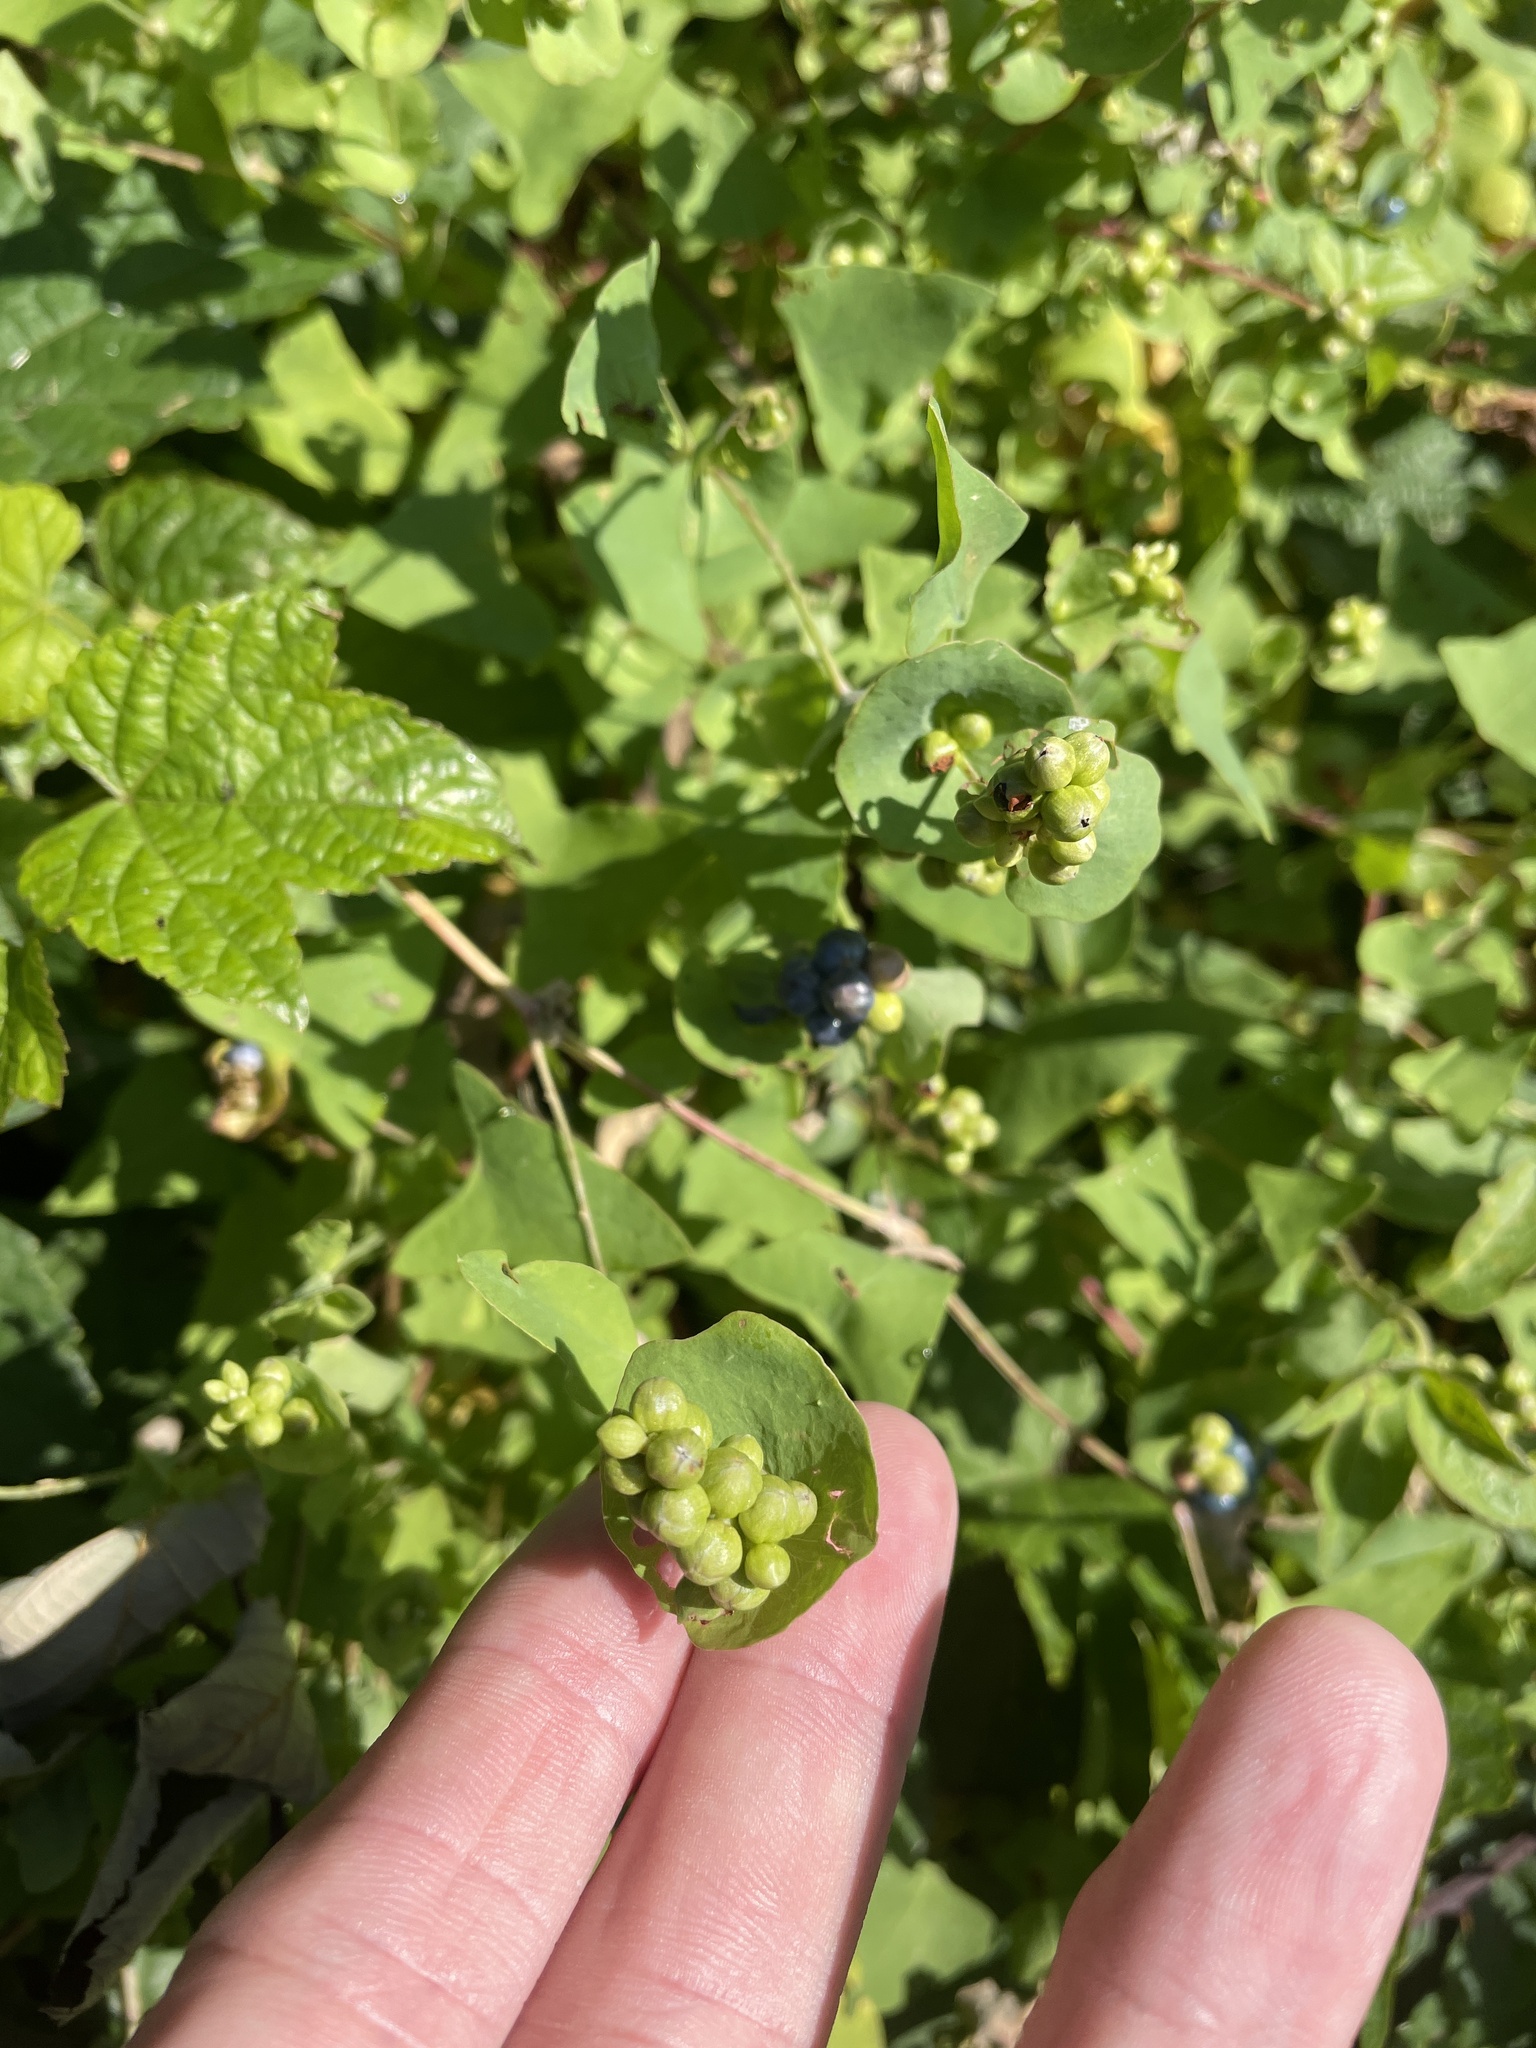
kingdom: Plantae
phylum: Tracheophyta
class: Magnoliopsida
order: Caryophyllales
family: Polygonaceae
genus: Persicaria
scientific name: Persicaria perfoliata
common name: Asiatic tearthumb
